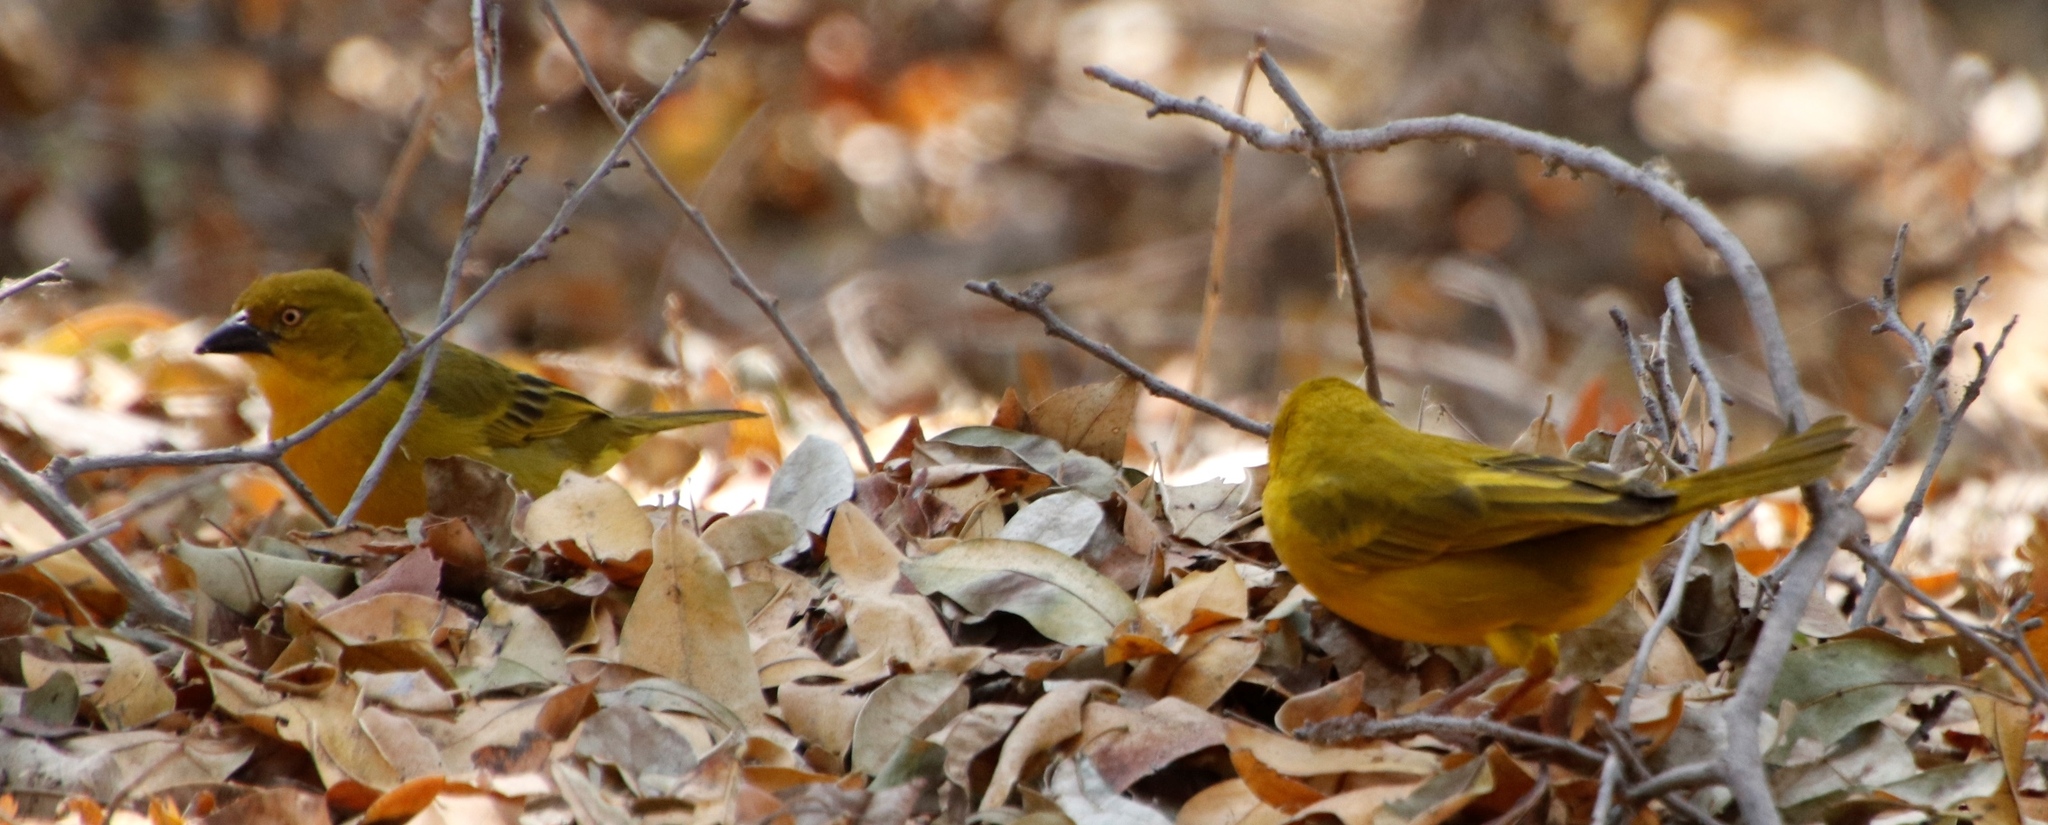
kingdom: Animalia
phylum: Chordata
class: Aves
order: Passeriformes
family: Ploceidae
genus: Ploceus
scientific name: Ploceus xanthops
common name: Holub's golden weaver
